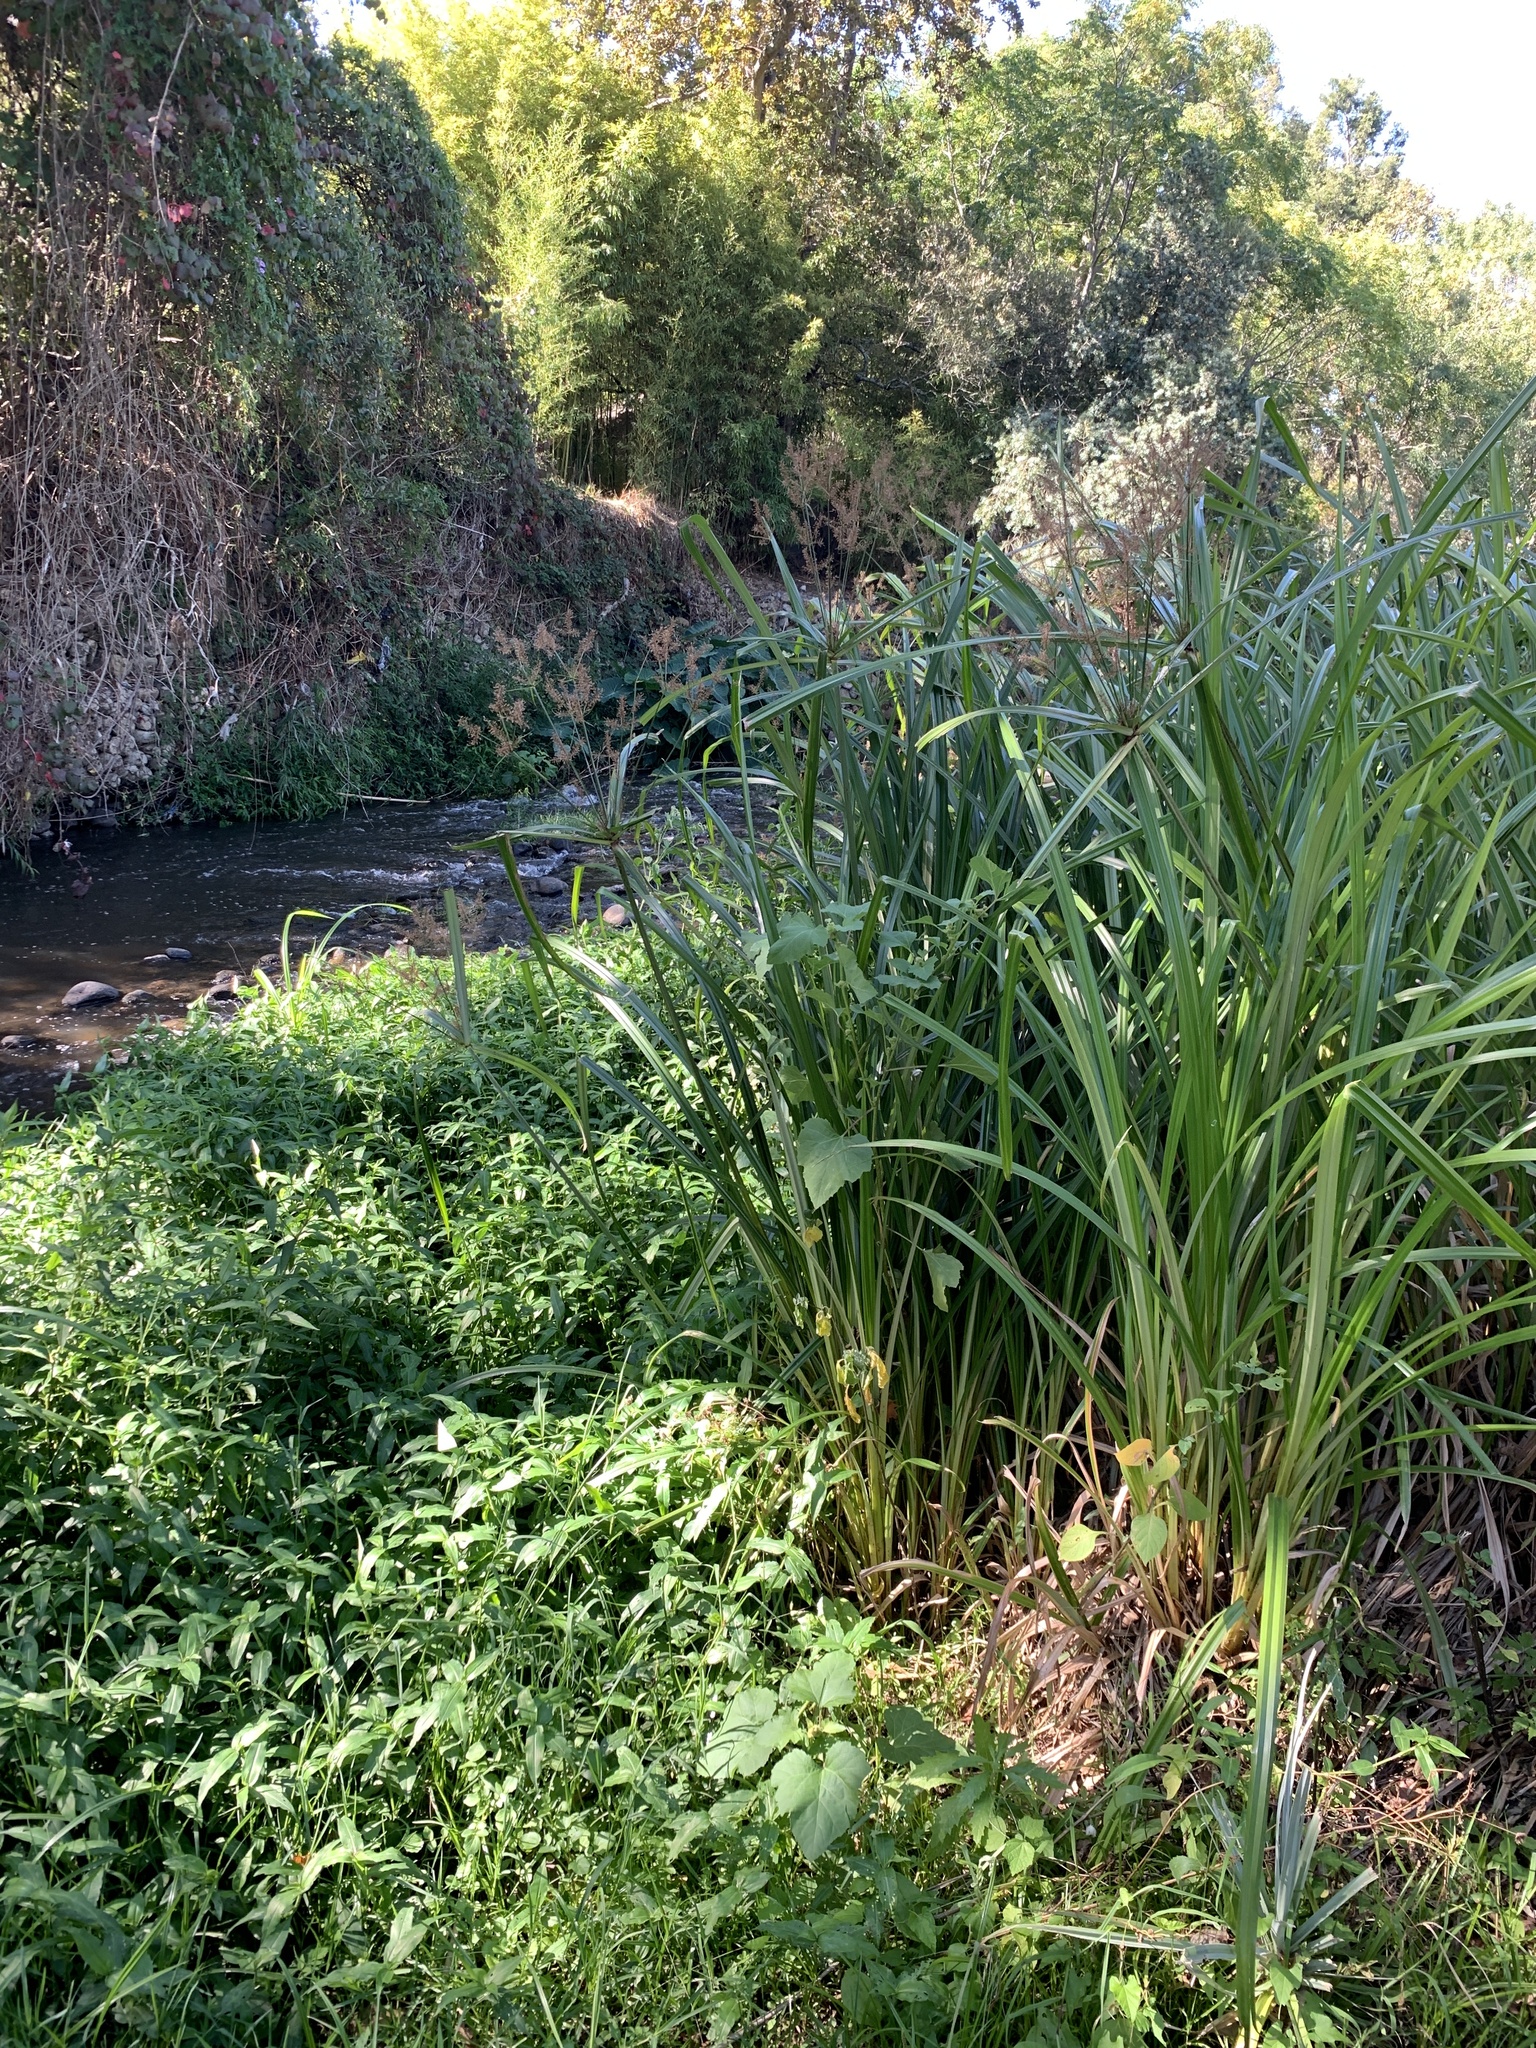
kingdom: Plantae
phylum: Tracheophyta
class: Liliopsida
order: Poales
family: Cyperaceae
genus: Cyperus
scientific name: Cyperus dives
